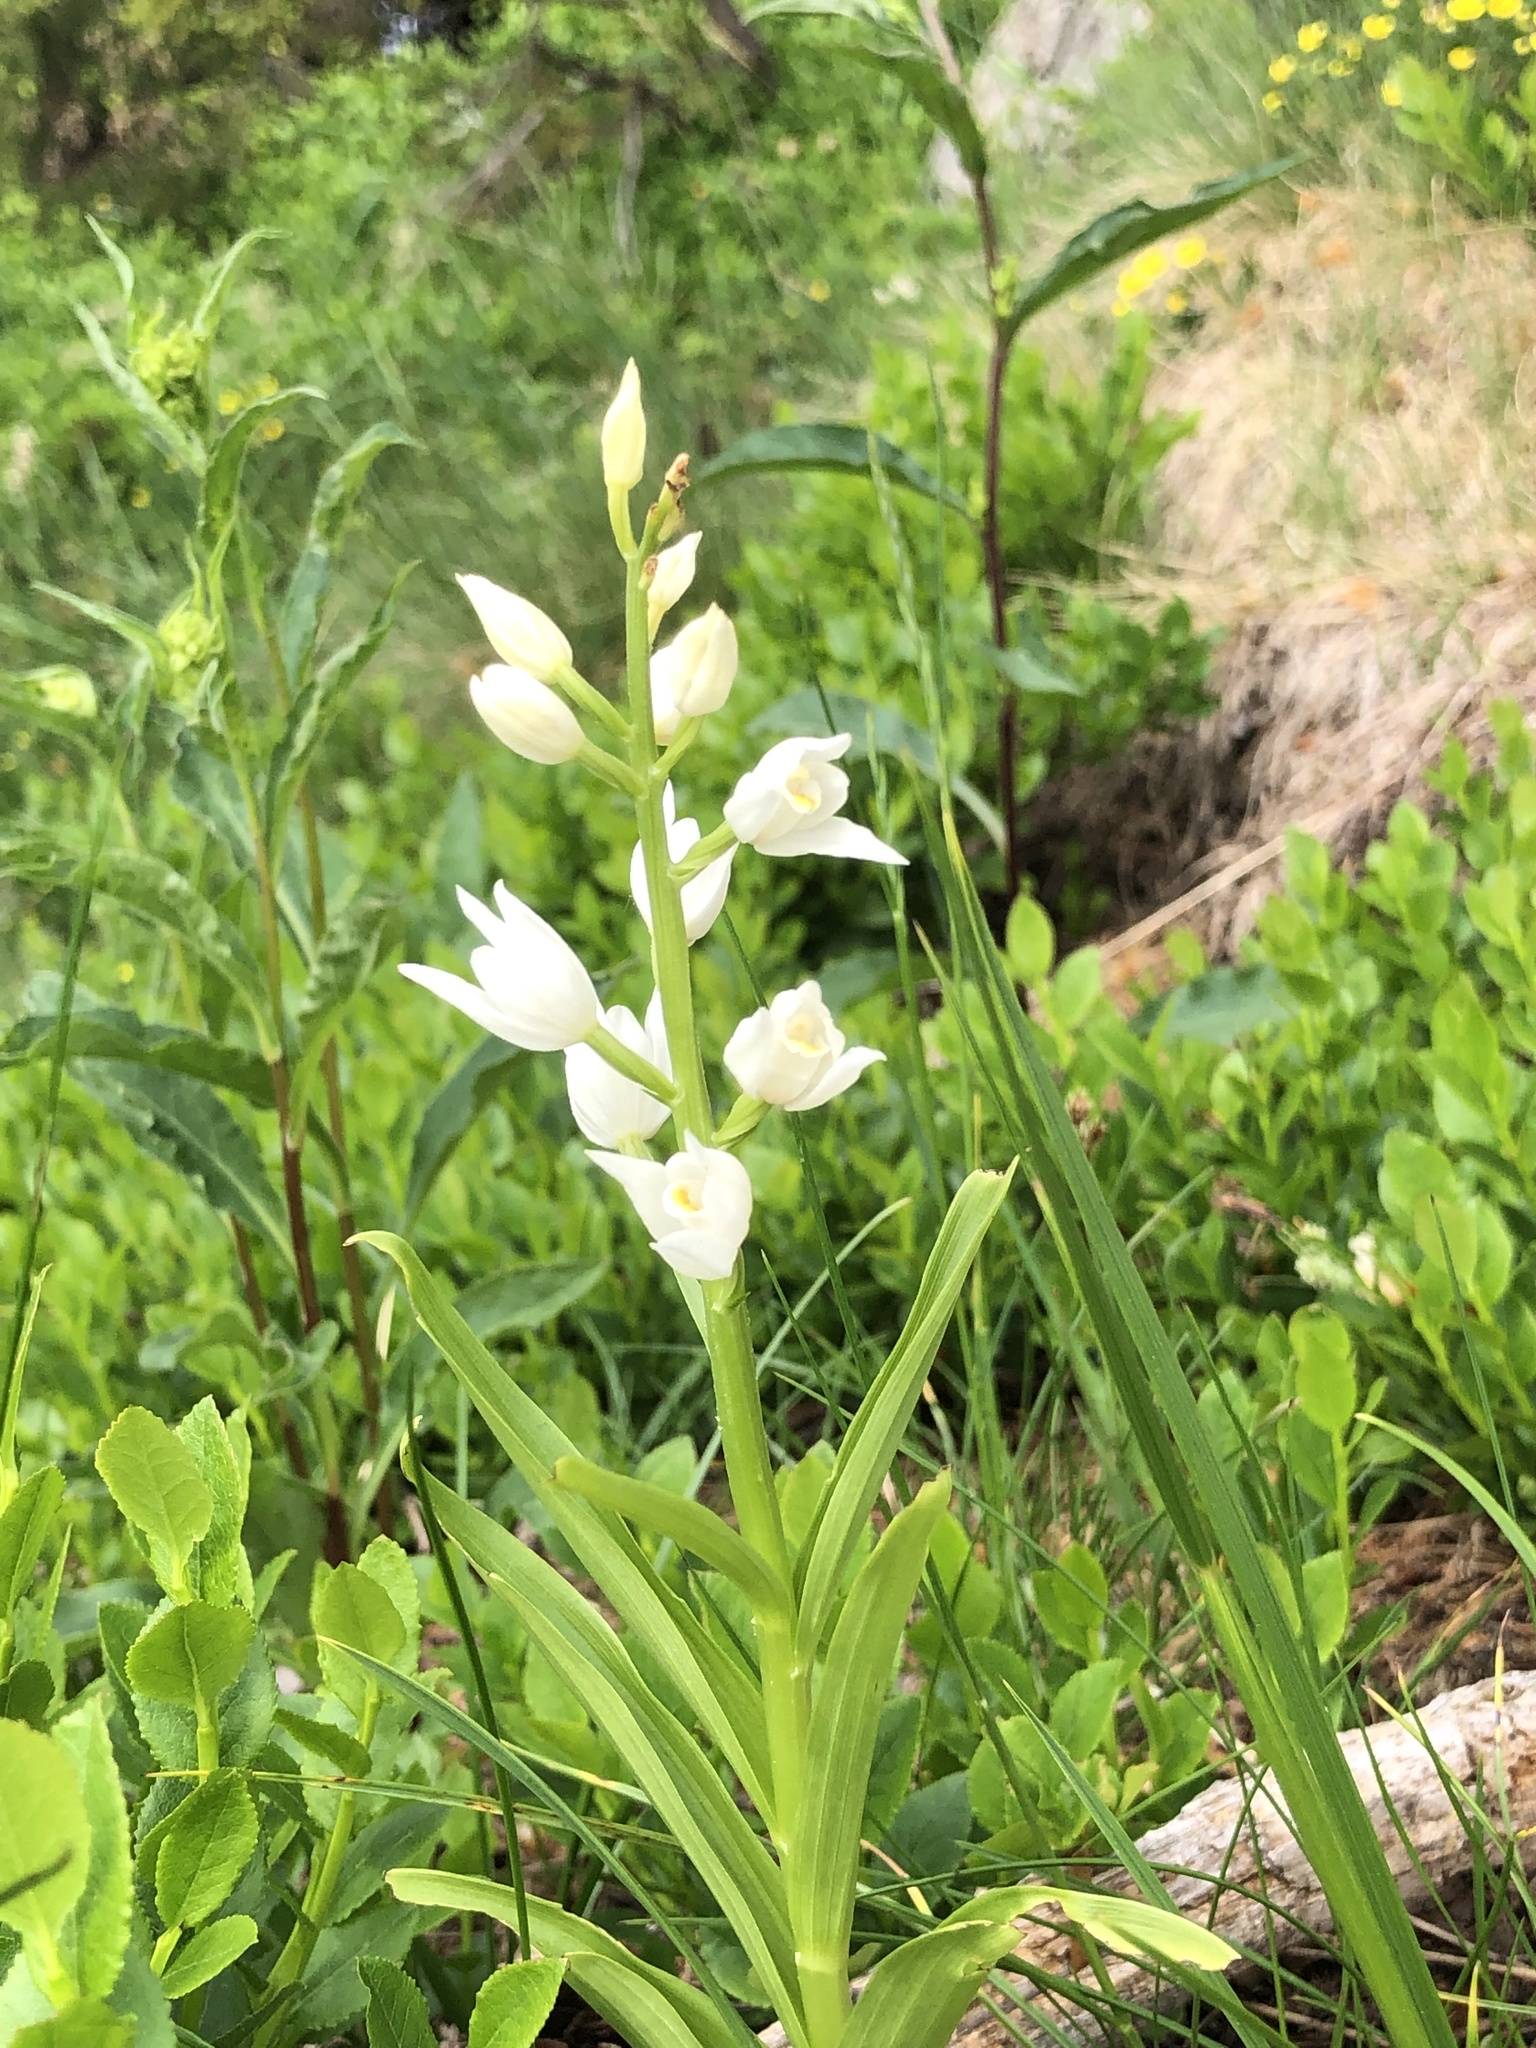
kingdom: Plantae
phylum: Tracheophyta
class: Liliopsida
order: Asparagales
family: Orchidaceae
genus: Cephalanthera
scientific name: Cephalanthera longifolia
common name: Narrow-leaved helleborine
